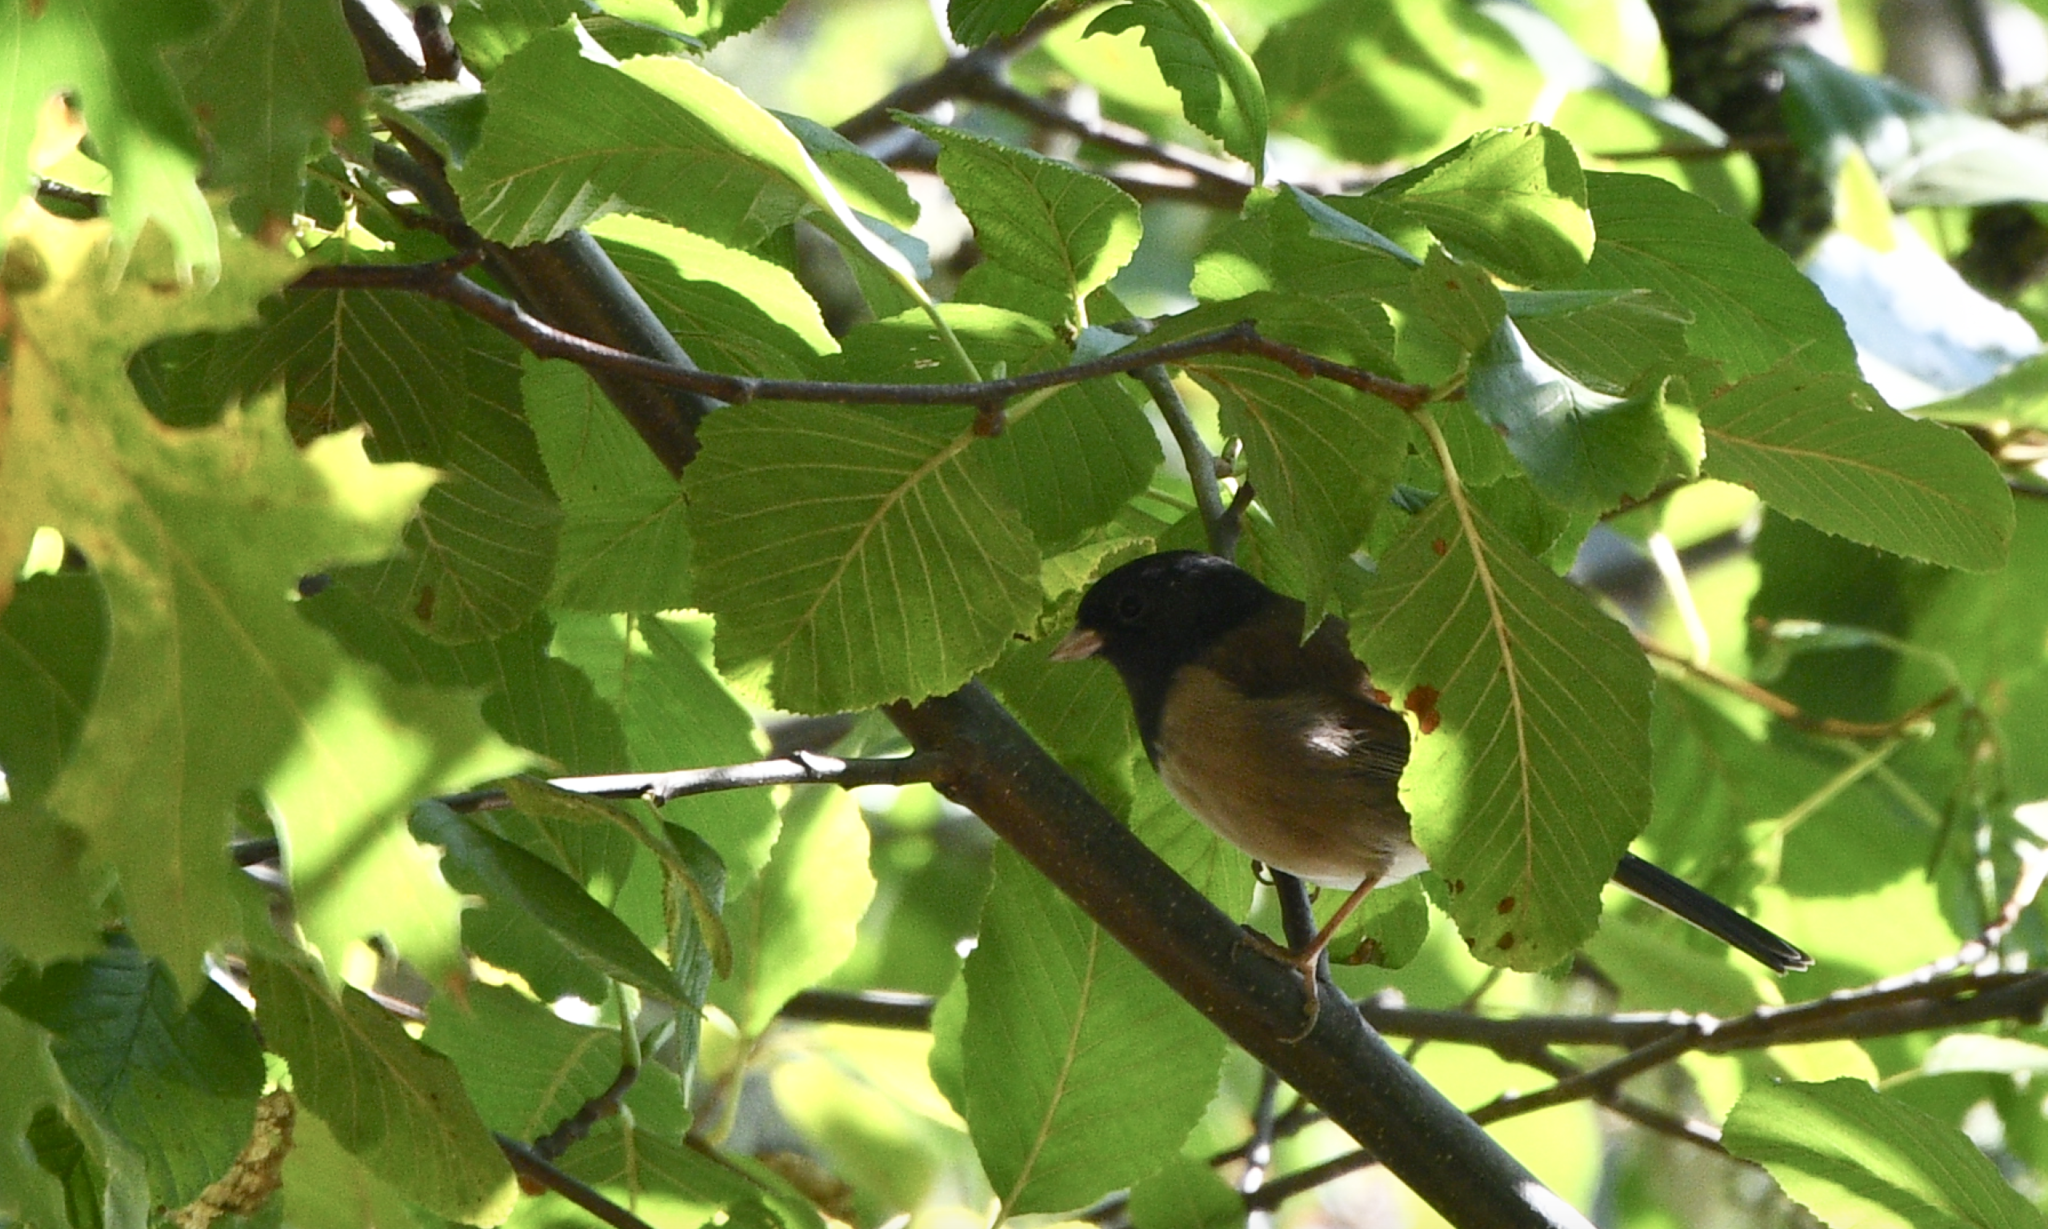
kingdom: Animalia
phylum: Chordata
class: Aves
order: Passeriformes
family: Passerellidae
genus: Junco
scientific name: Junco hyemalis
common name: Dark-eyed junco
